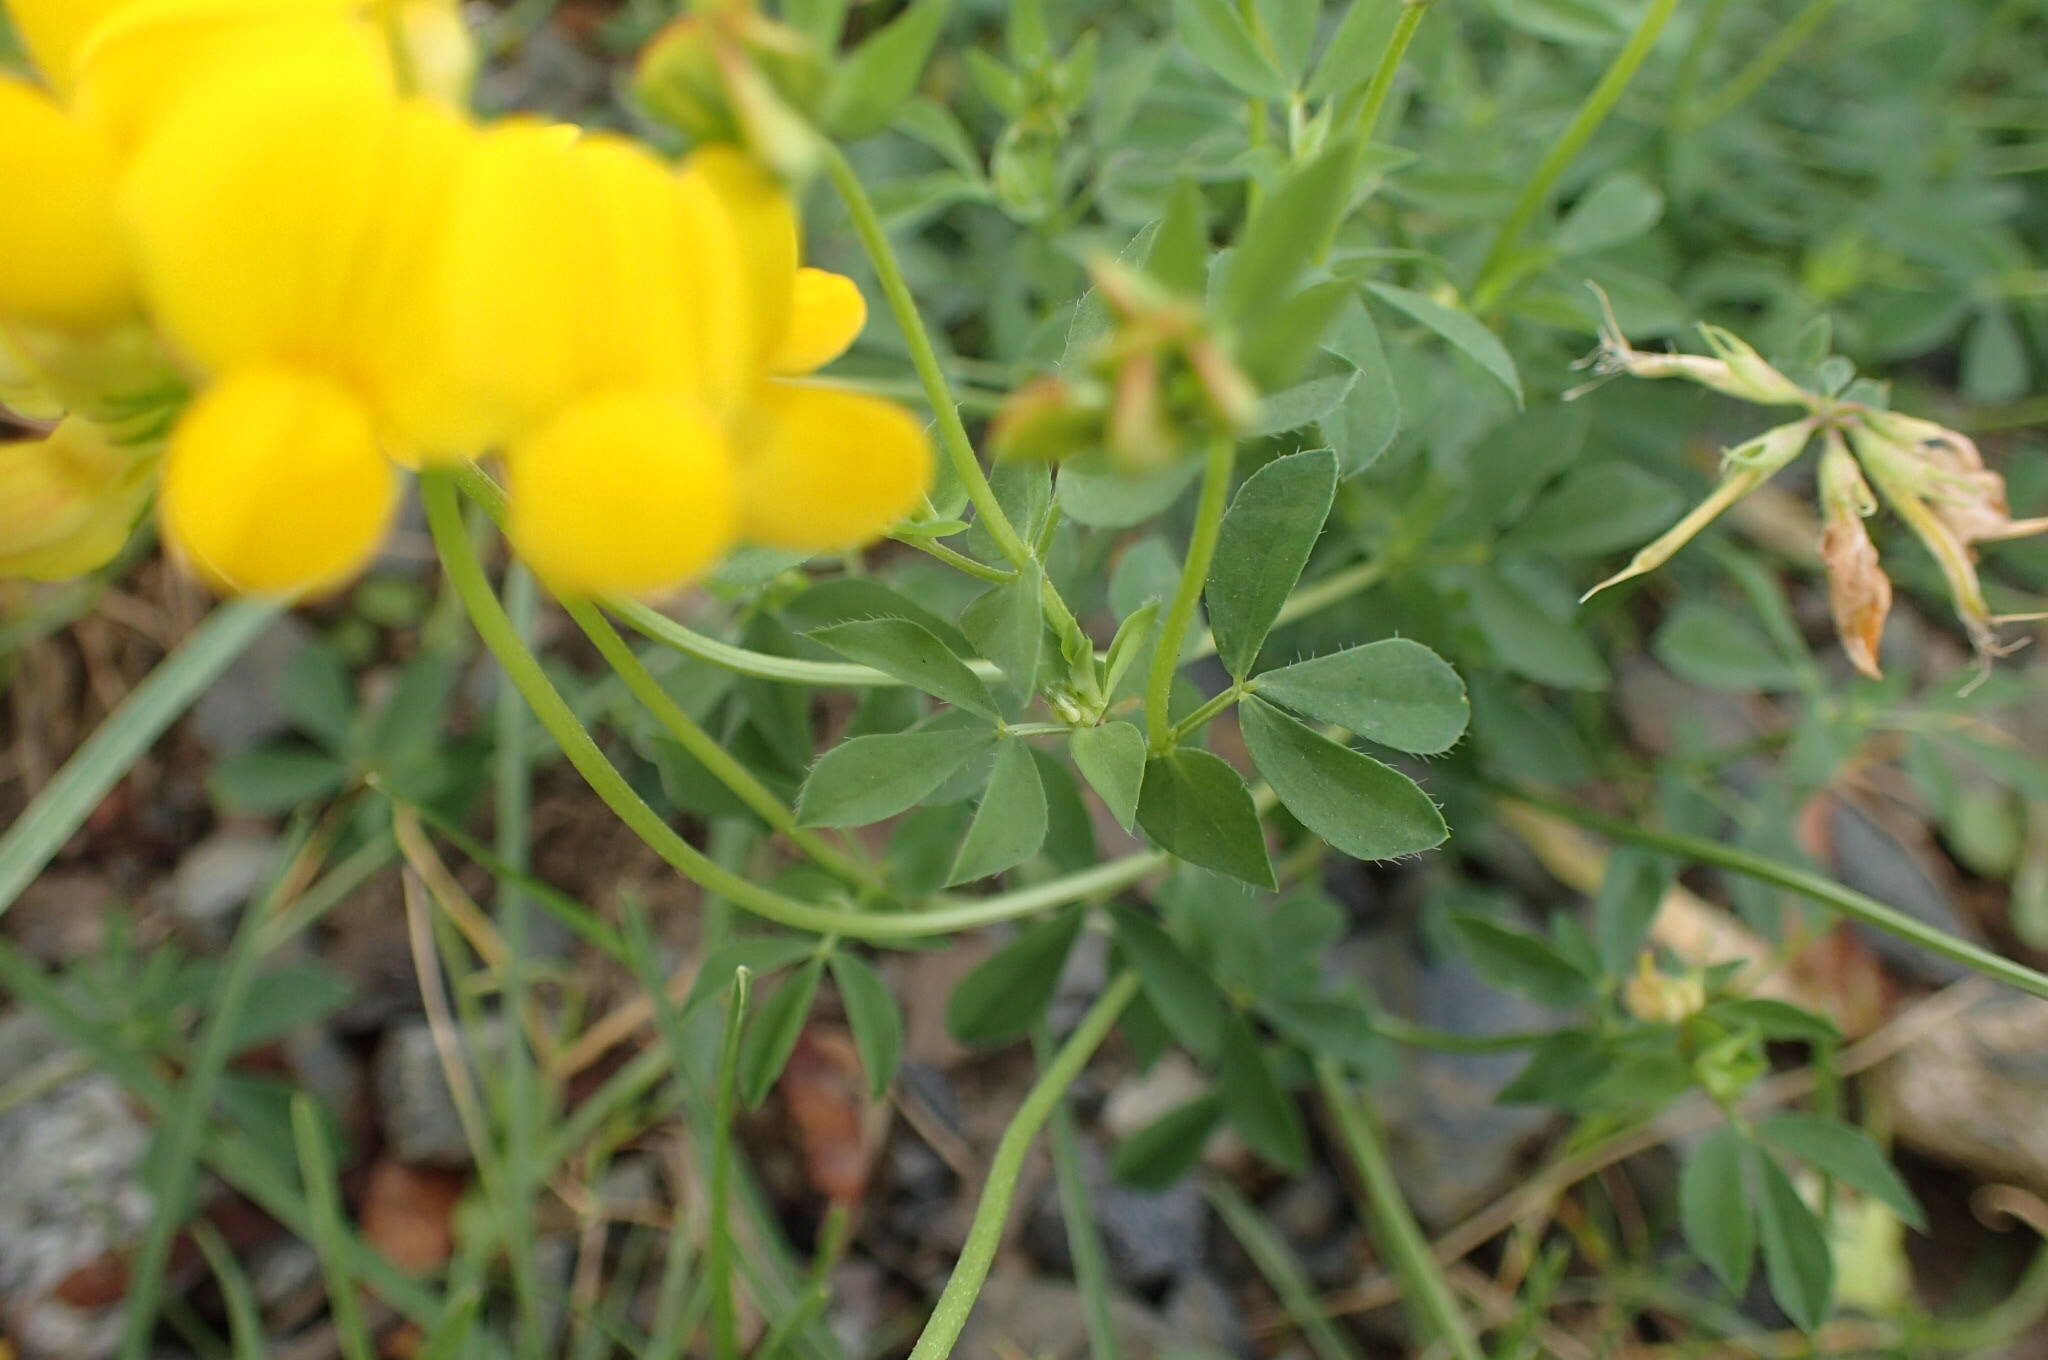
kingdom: Plantae
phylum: Tracheophyta
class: Magnoliopsida
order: Fabales
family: Fabaceae
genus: Lotus
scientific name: Lotus corniculatus
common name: Common bird's-foot-trefoil
